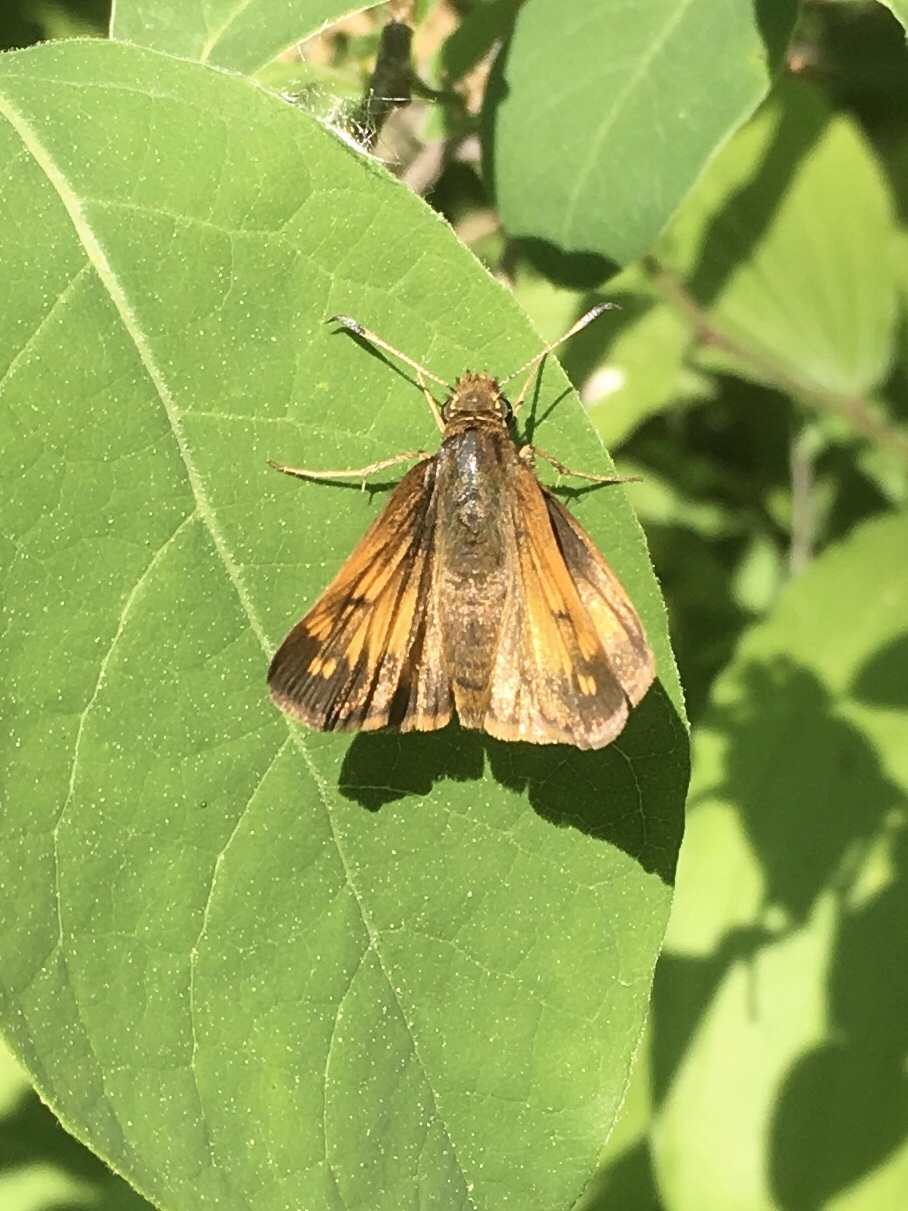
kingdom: Animalia
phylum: Arthropoda
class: Insecta
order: Lepidoptera
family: Hesperiidae
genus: Lon
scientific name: Lon hobomok
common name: Hobomok skipper
